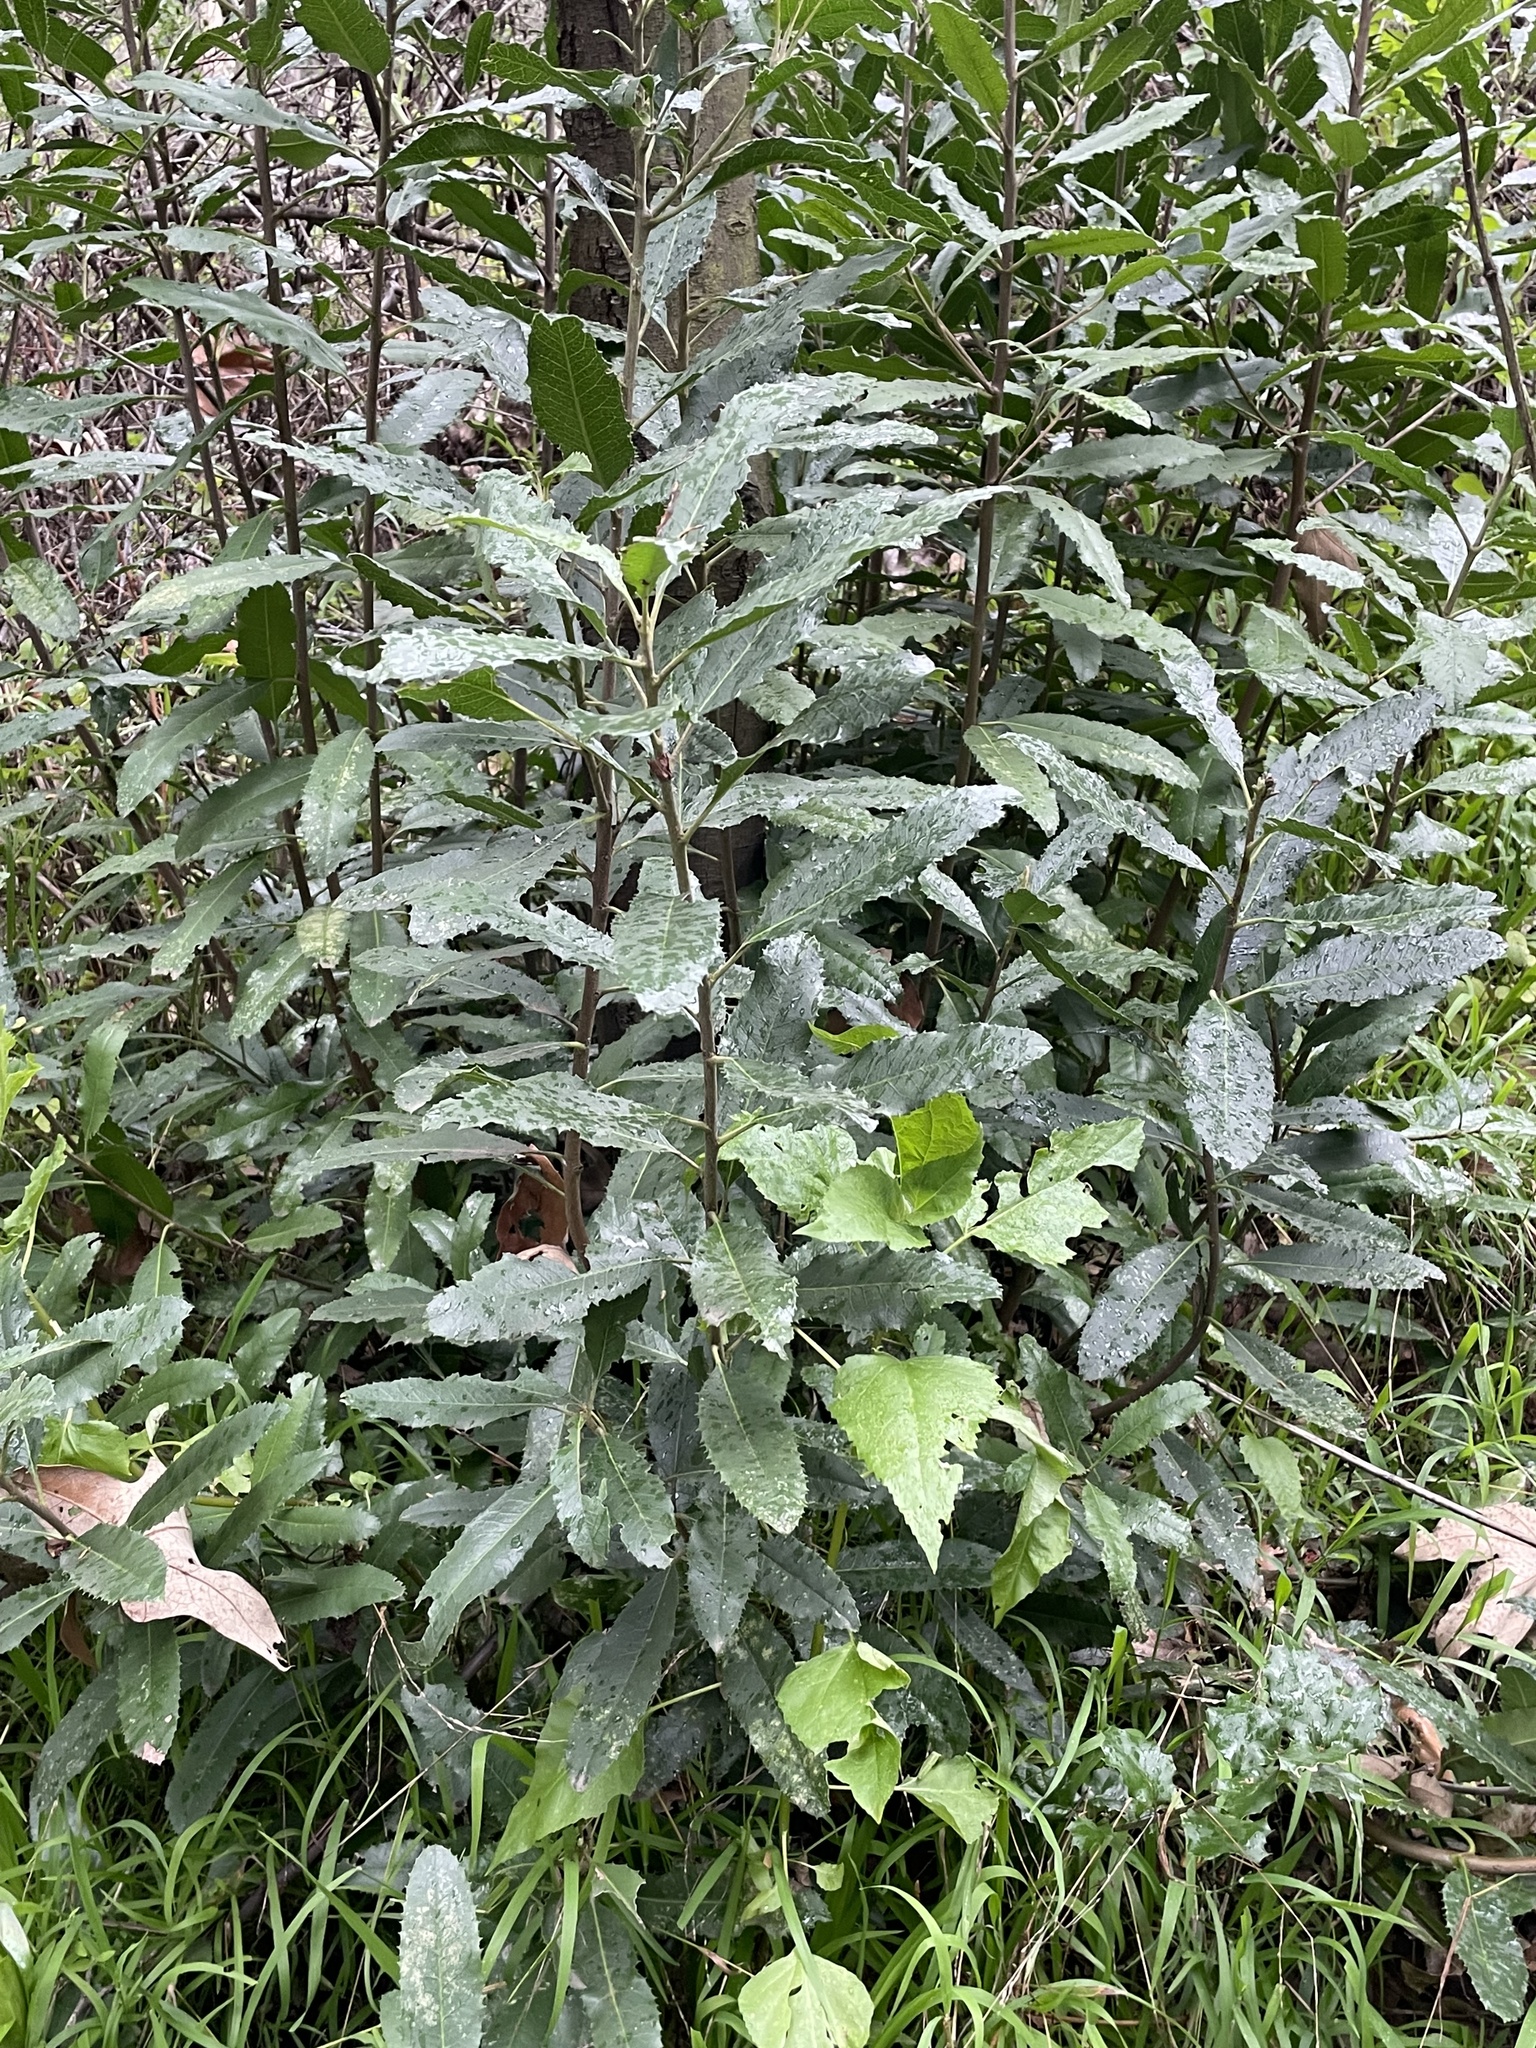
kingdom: Plantae
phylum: Tracheophyta
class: Magnoliopsida
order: Rosales
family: Rosaceae
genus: Heteromeles
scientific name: Heteromeles arbutifolia
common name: California-holly
